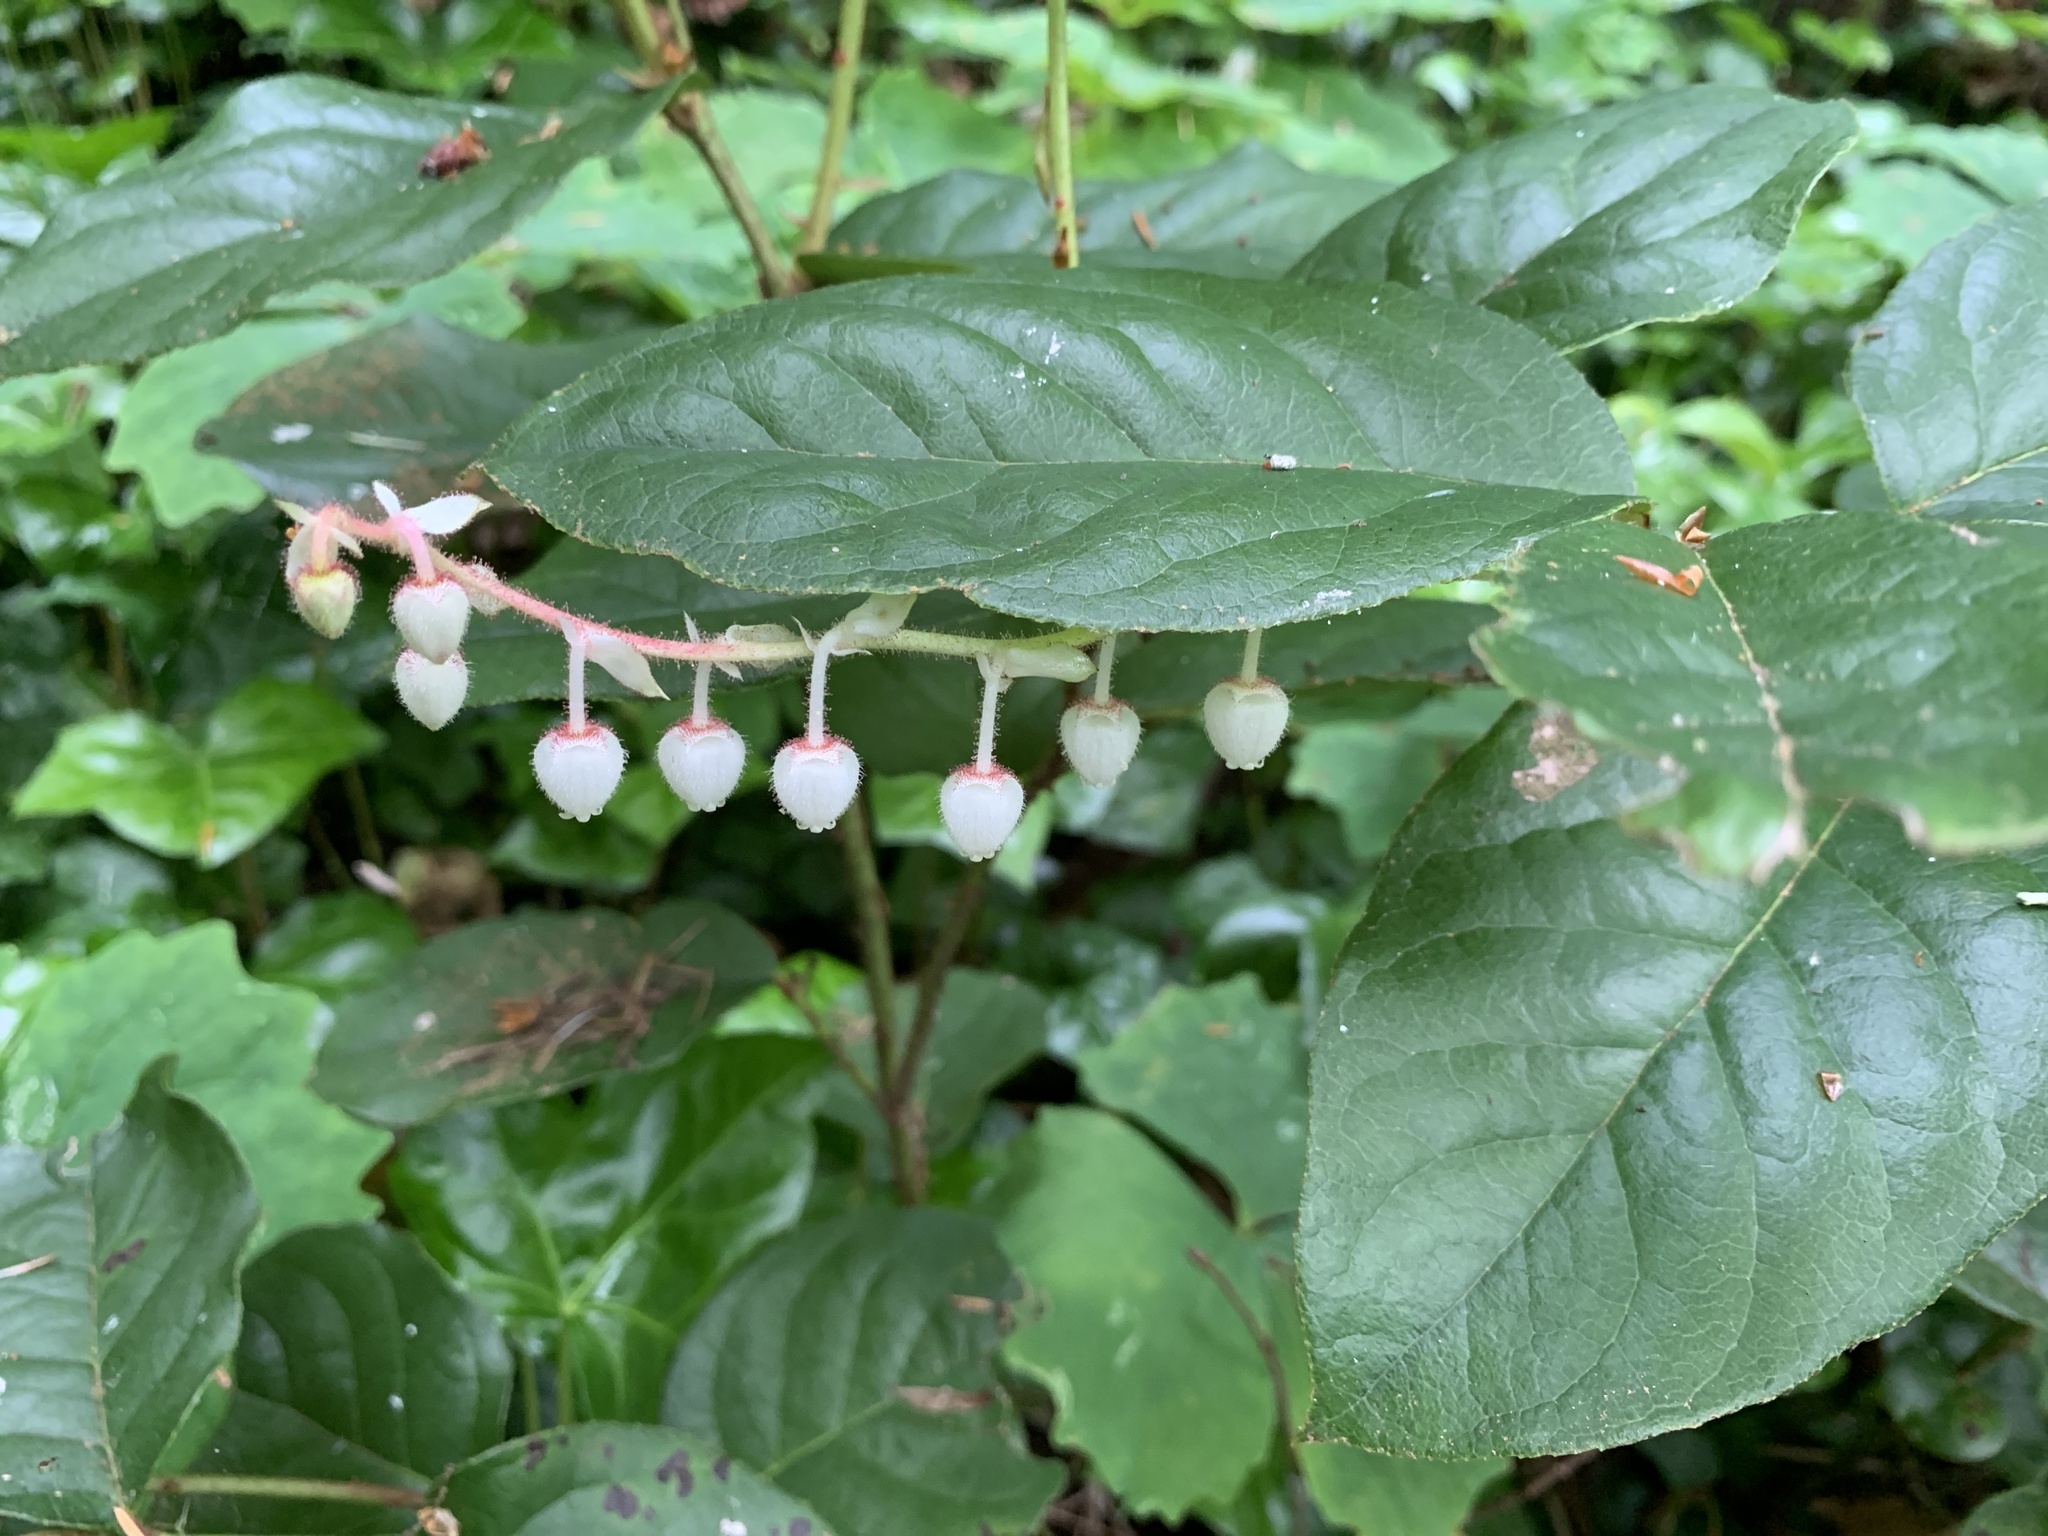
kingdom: Plantae
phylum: Tracheophyta
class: Magnoliopsida
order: Ericales
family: Ericaceae
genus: Gaultheria
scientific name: Gaultheria shallon
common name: Shallon
